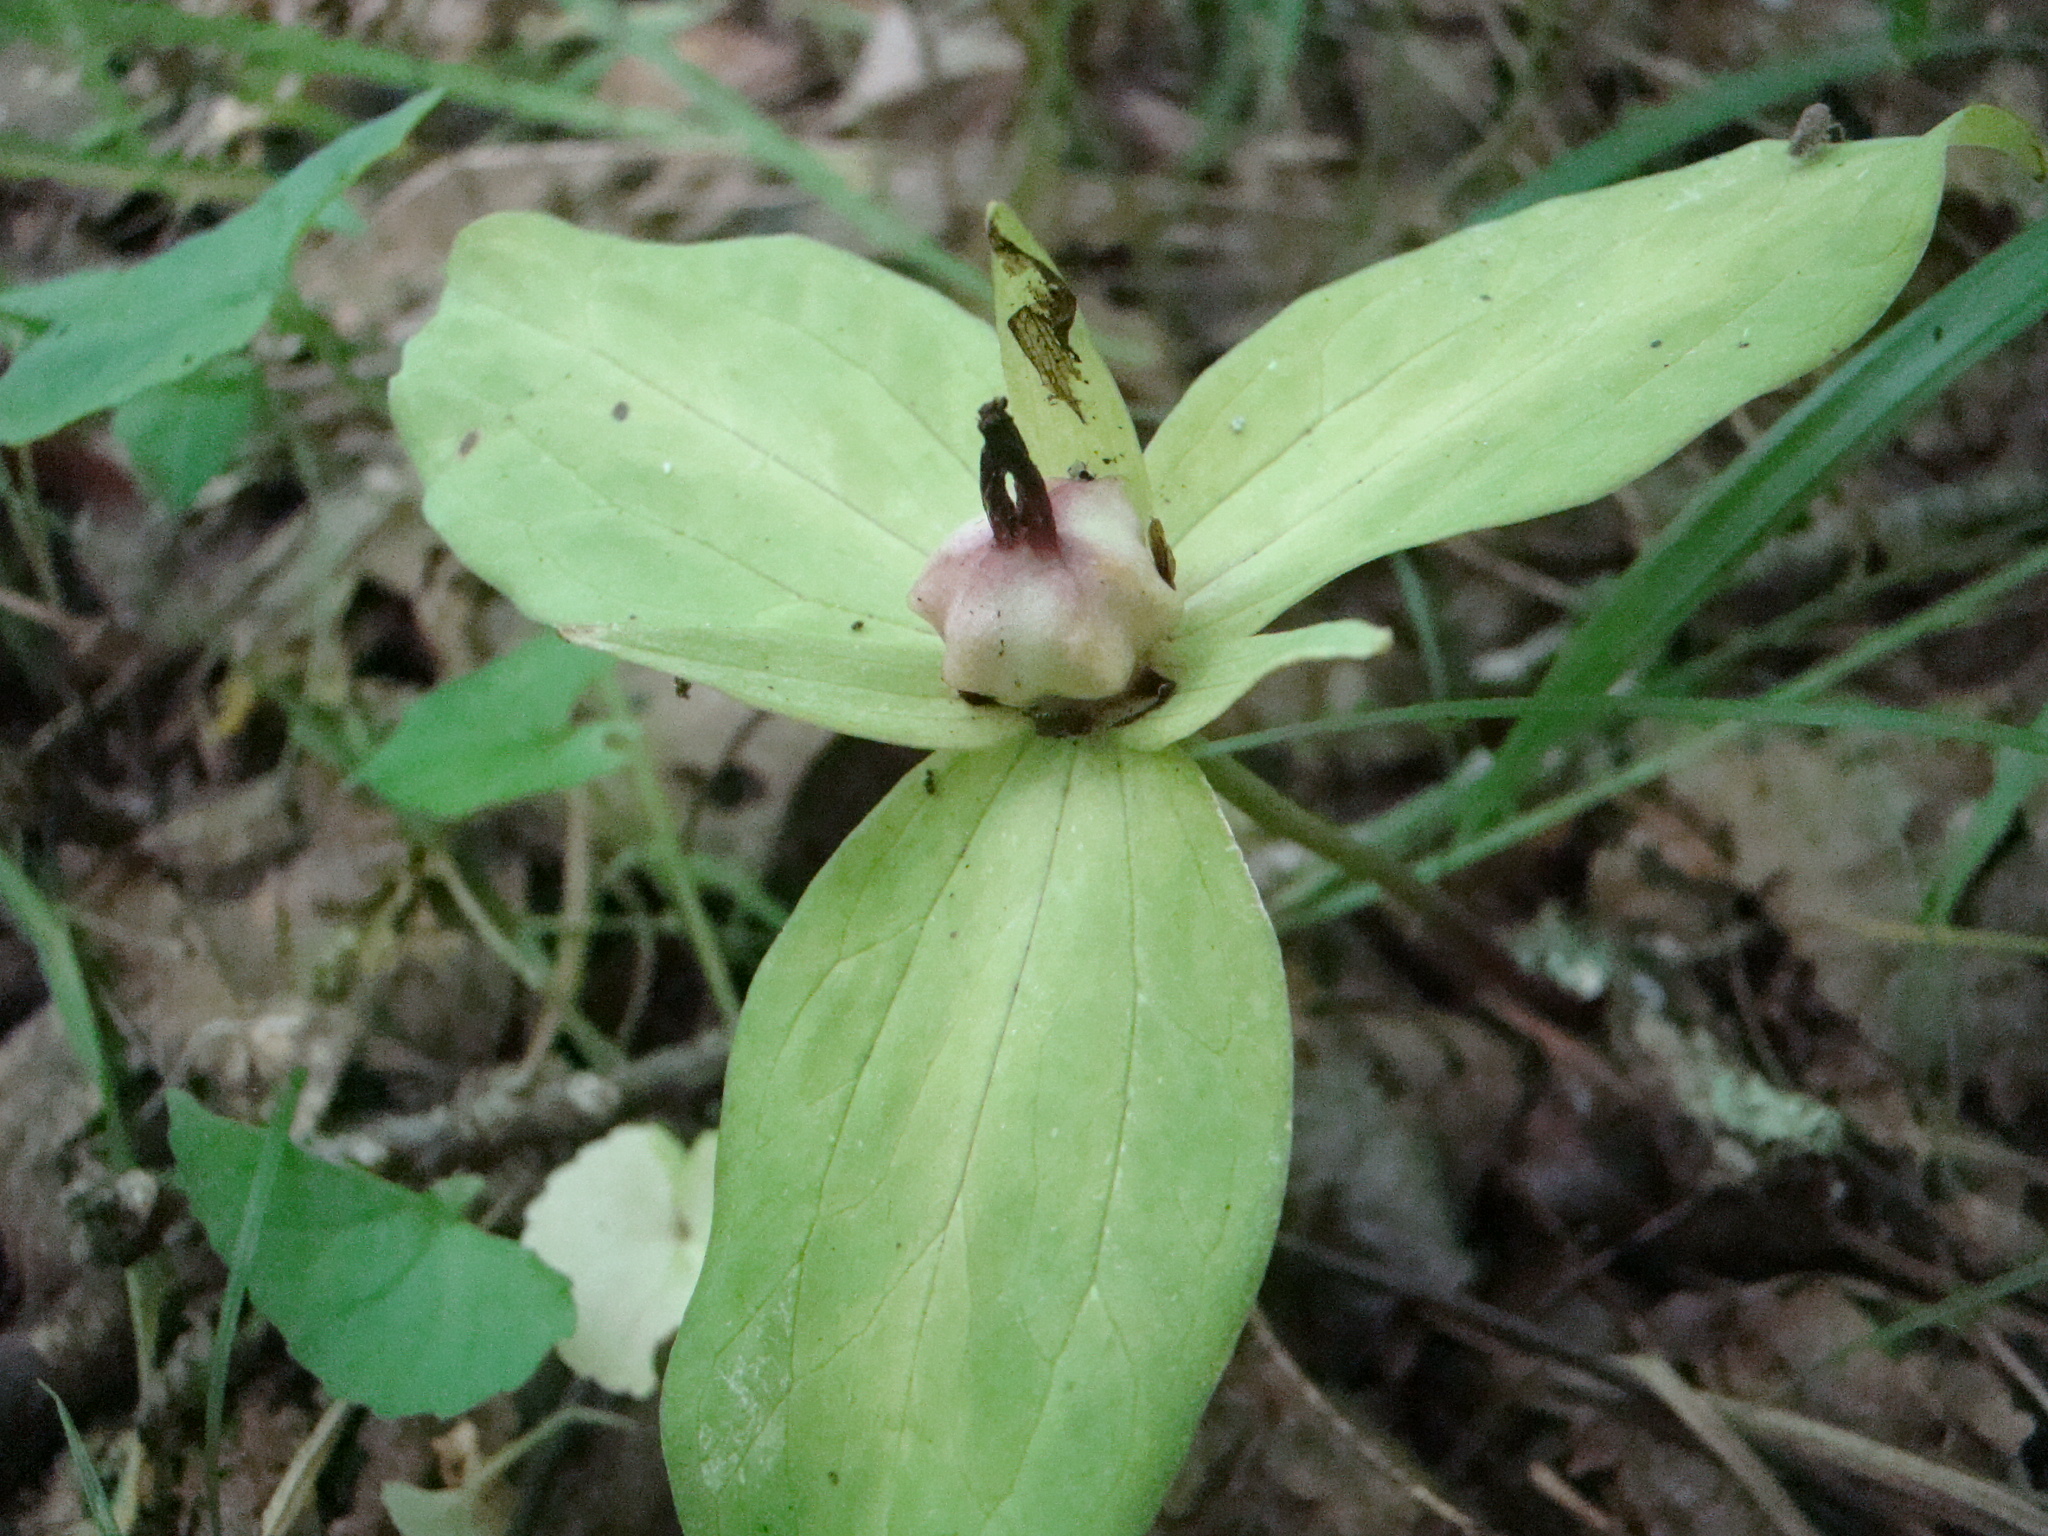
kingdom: Plantae
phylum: Tracheophyta
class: Liliopsida
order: Liliales
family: Melanthiaceae
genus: Trillium
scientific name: Trillium sessile
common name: Sessile trillium
